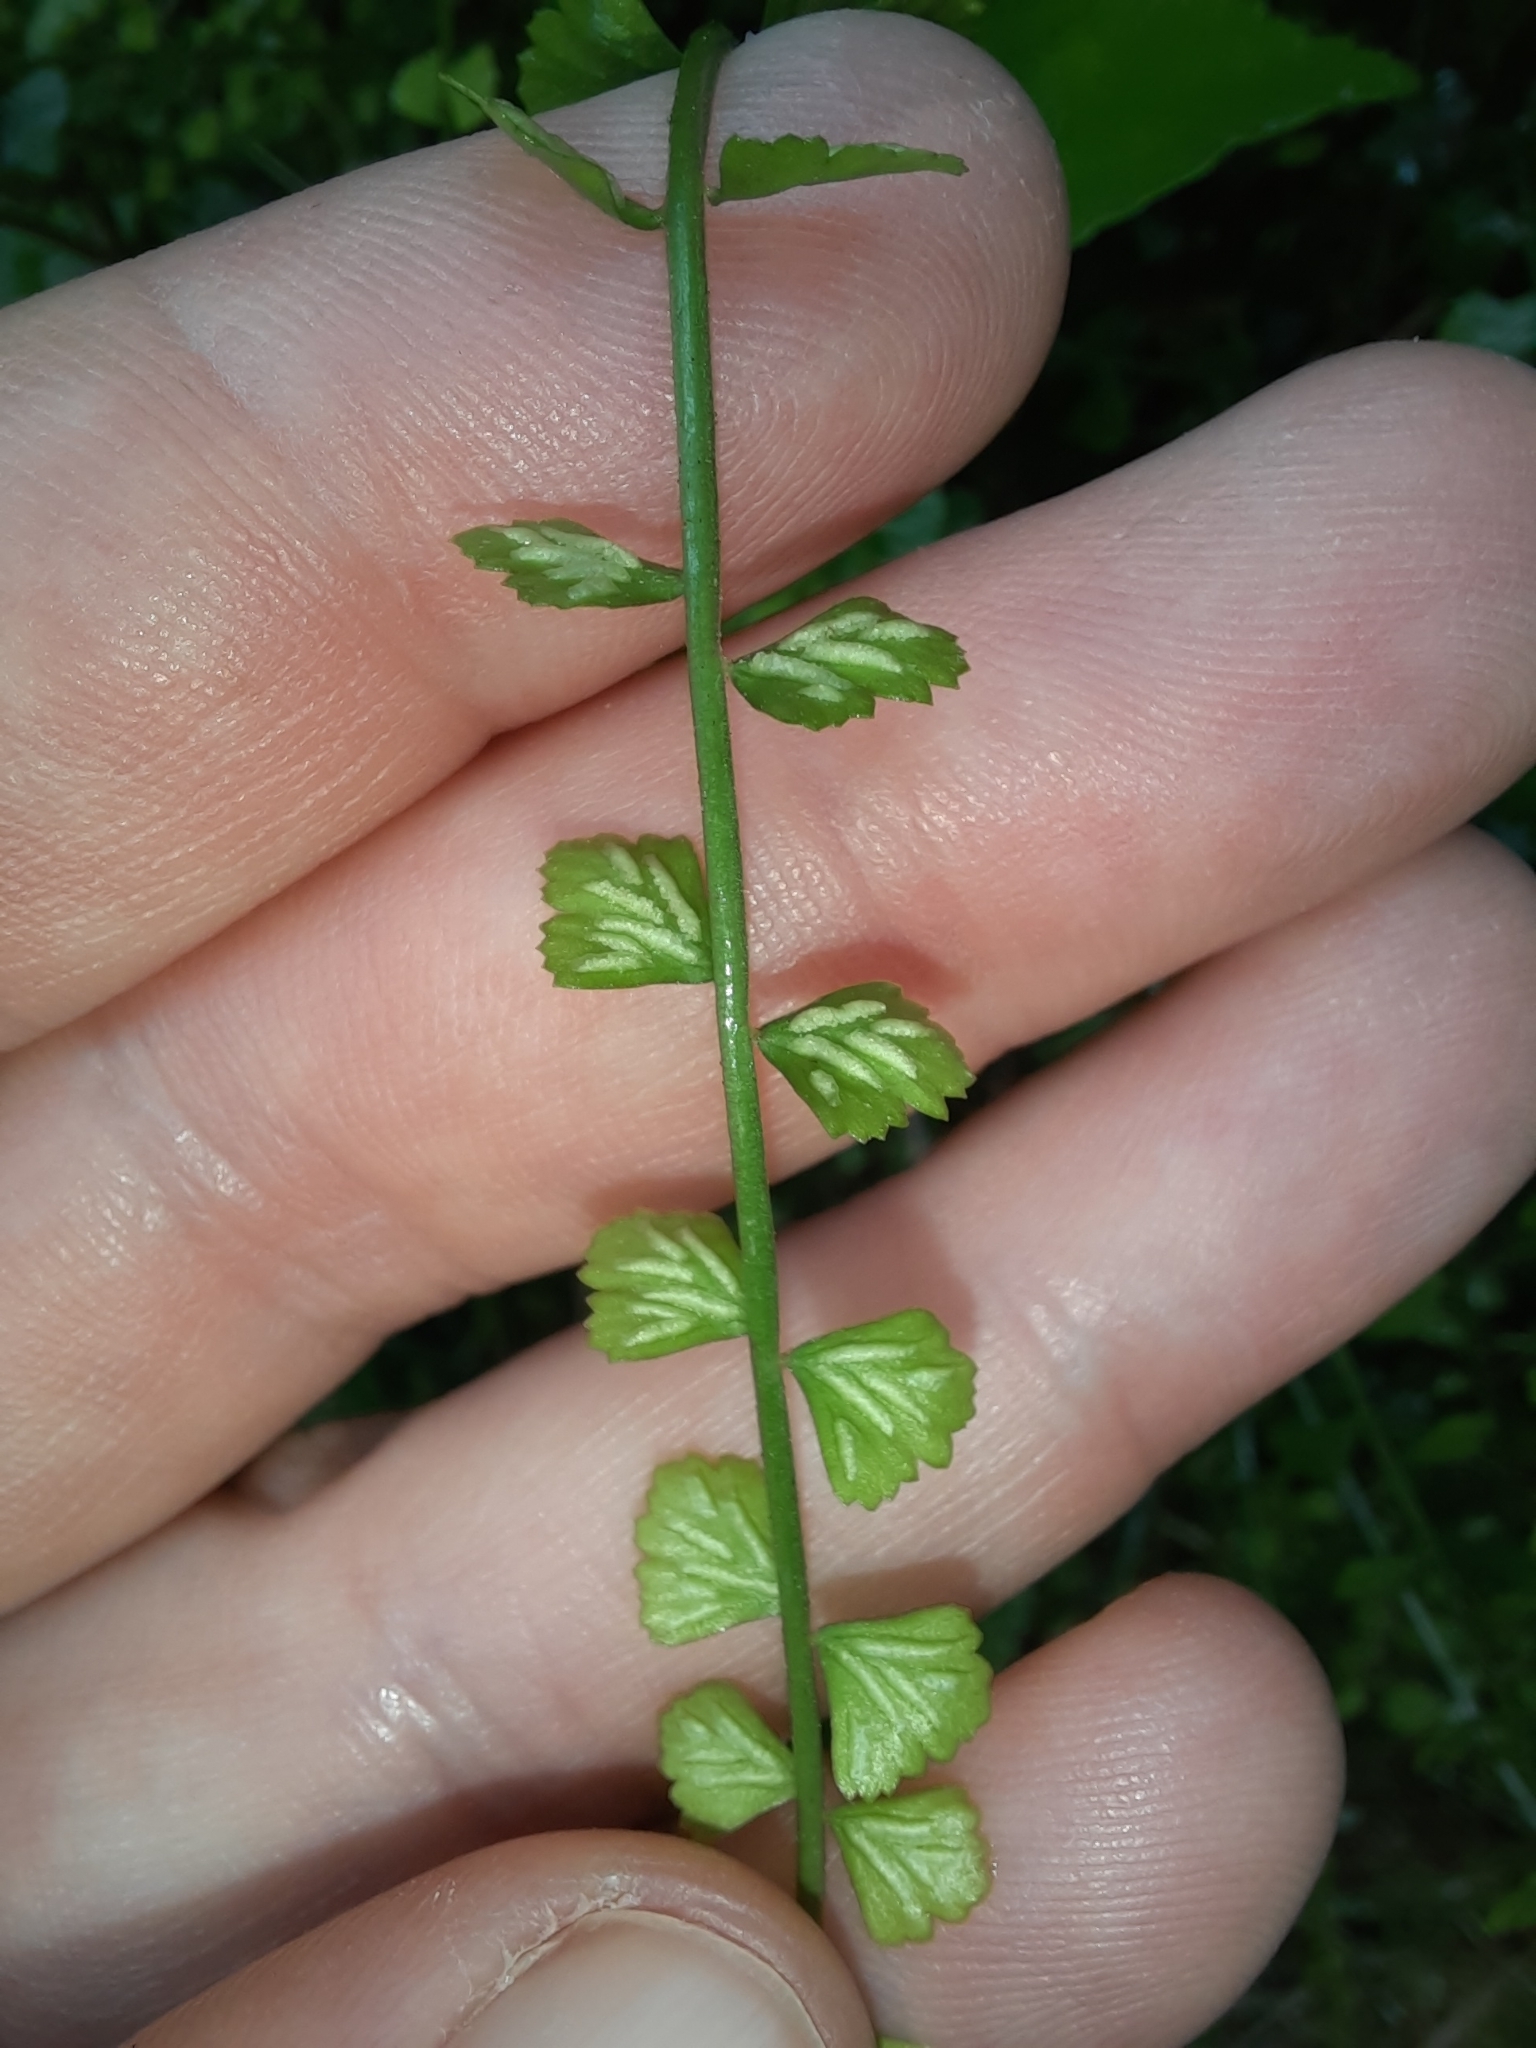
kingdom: Plantae
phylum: Tracheophyta
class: Polypodiopsida
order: Polypodiales
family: Aspleniaceae
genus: Asplenium
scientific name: Asplenium flabellifolium
